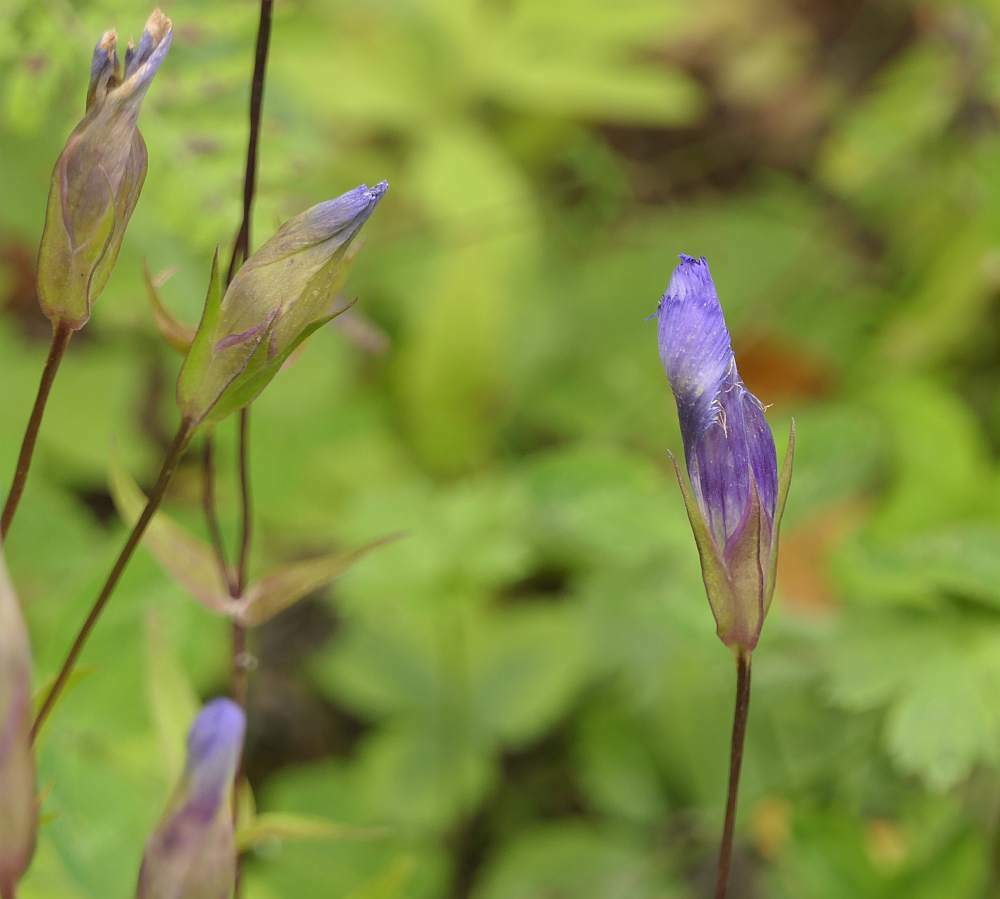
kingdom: Plantae
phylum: Tracheophyta
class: Magnoliopsida
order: Gentianales
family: Gentianaceae
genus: Gentianopsis
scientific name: Gentianopsis crinita
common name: Fringed-gentian
